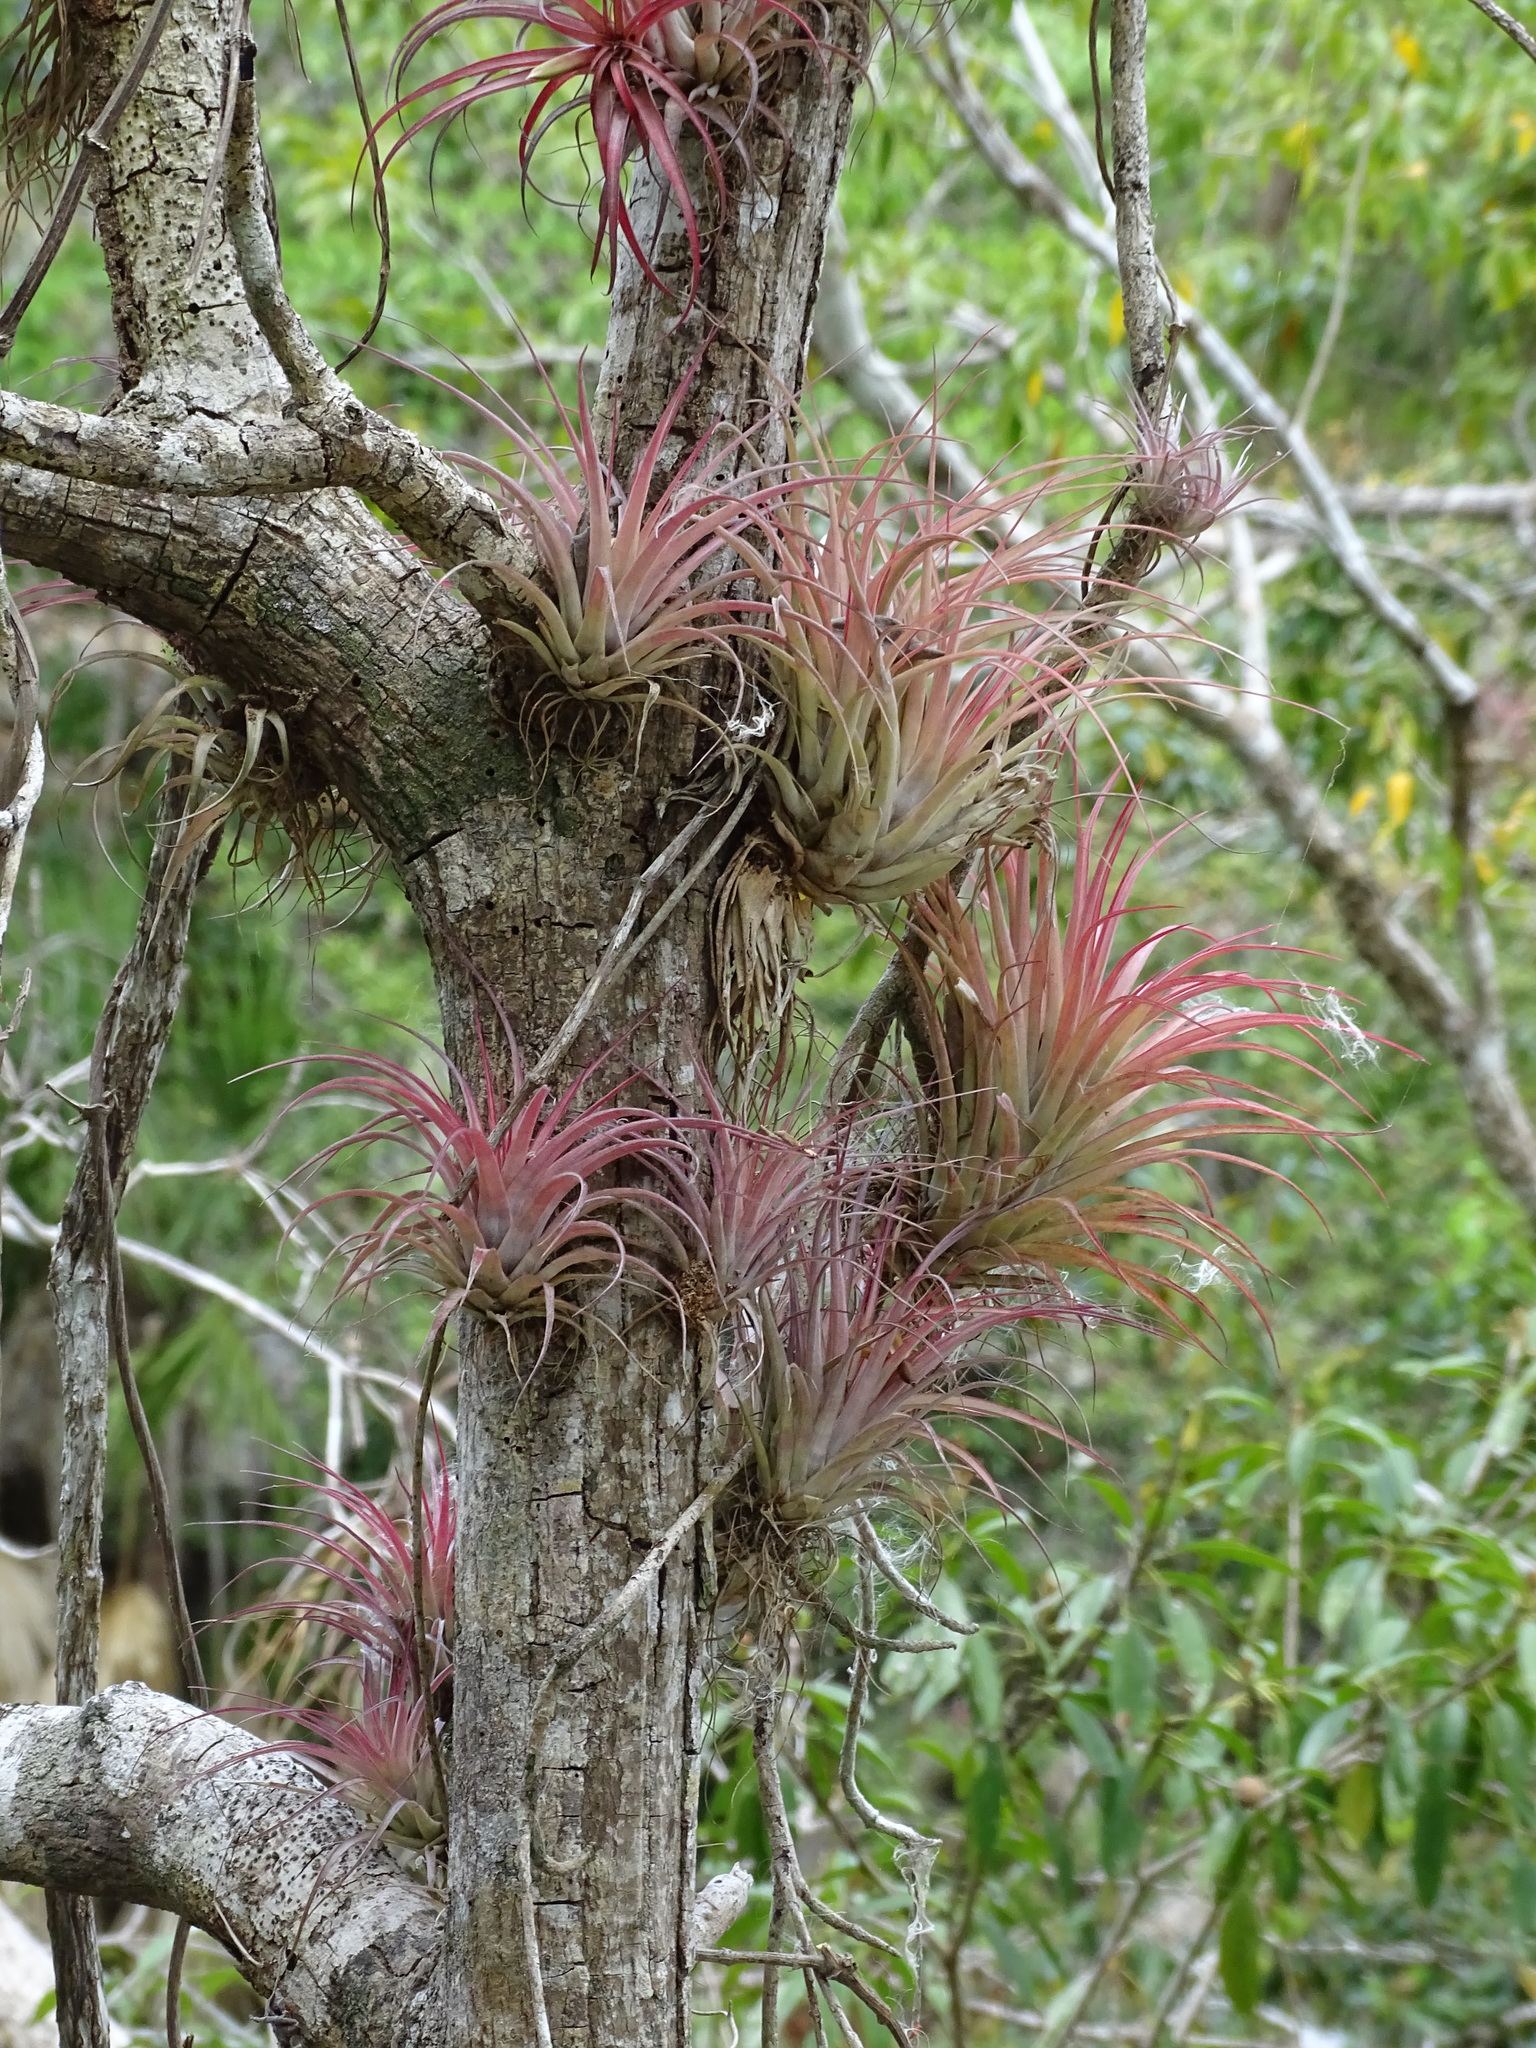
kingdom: Plantae
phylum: Tracheophyta
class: Liliopsida
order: Poales
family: Bromeliaceae
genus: Tillandsia
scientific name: Tillandsia brachycaulos
